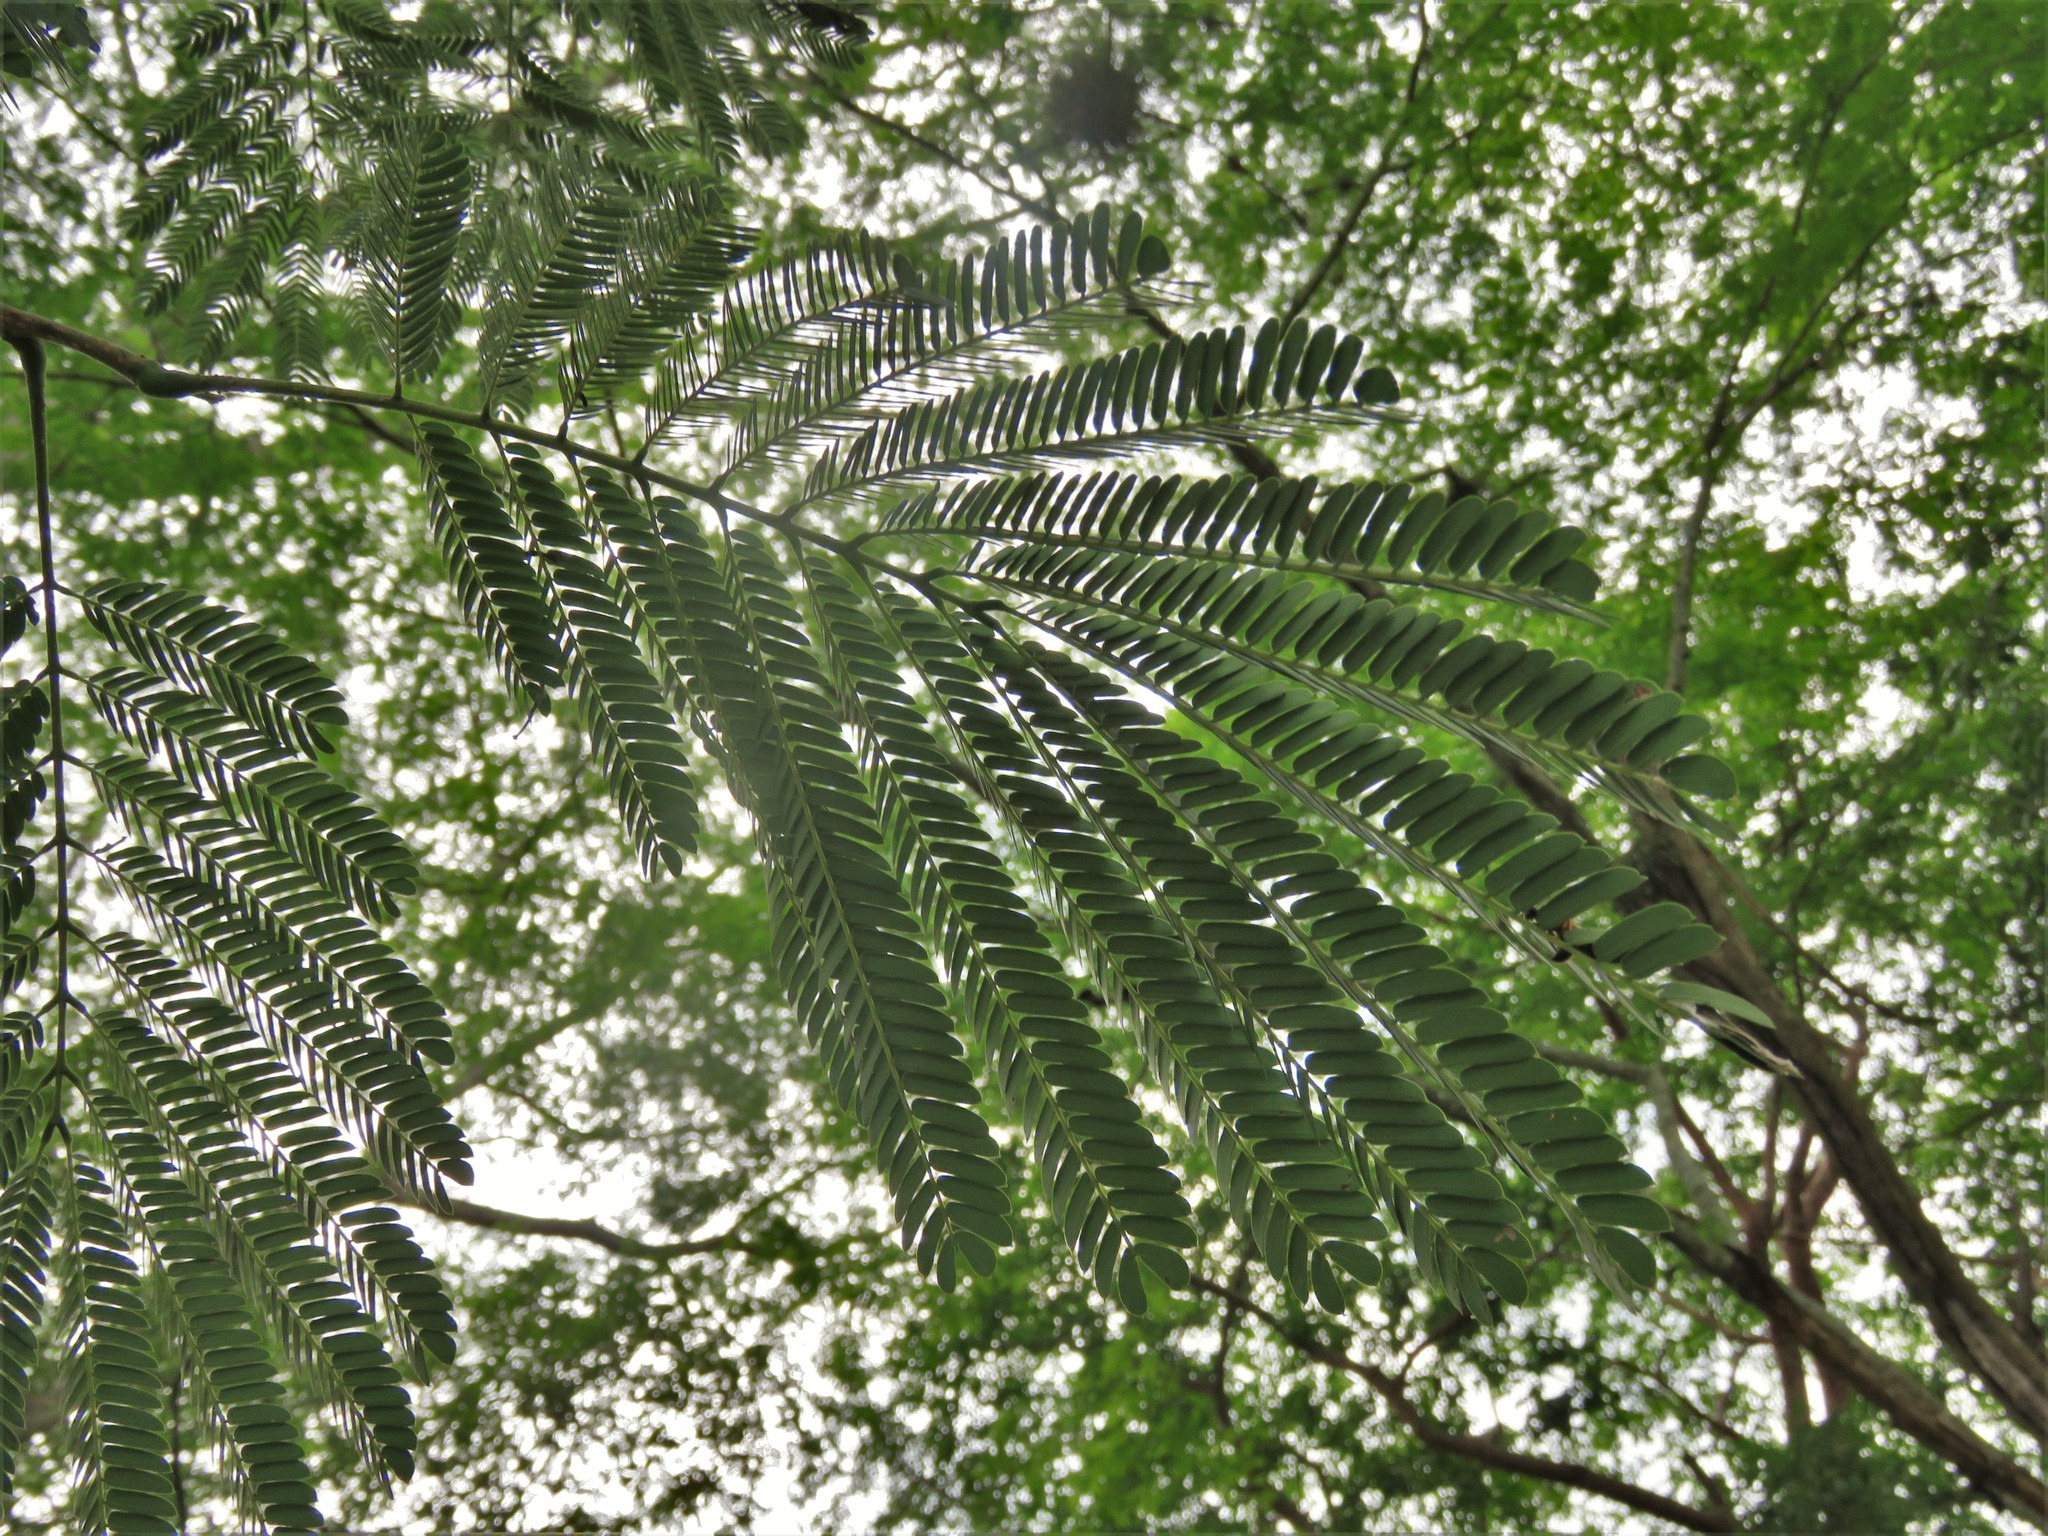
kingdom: Plantae
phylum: Tracheophyta
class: Magnoliopsida
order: Fabales
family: Fabaceae
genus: Enterolobium
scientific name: Enterolobium cyclocarpum
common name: Ear tree
